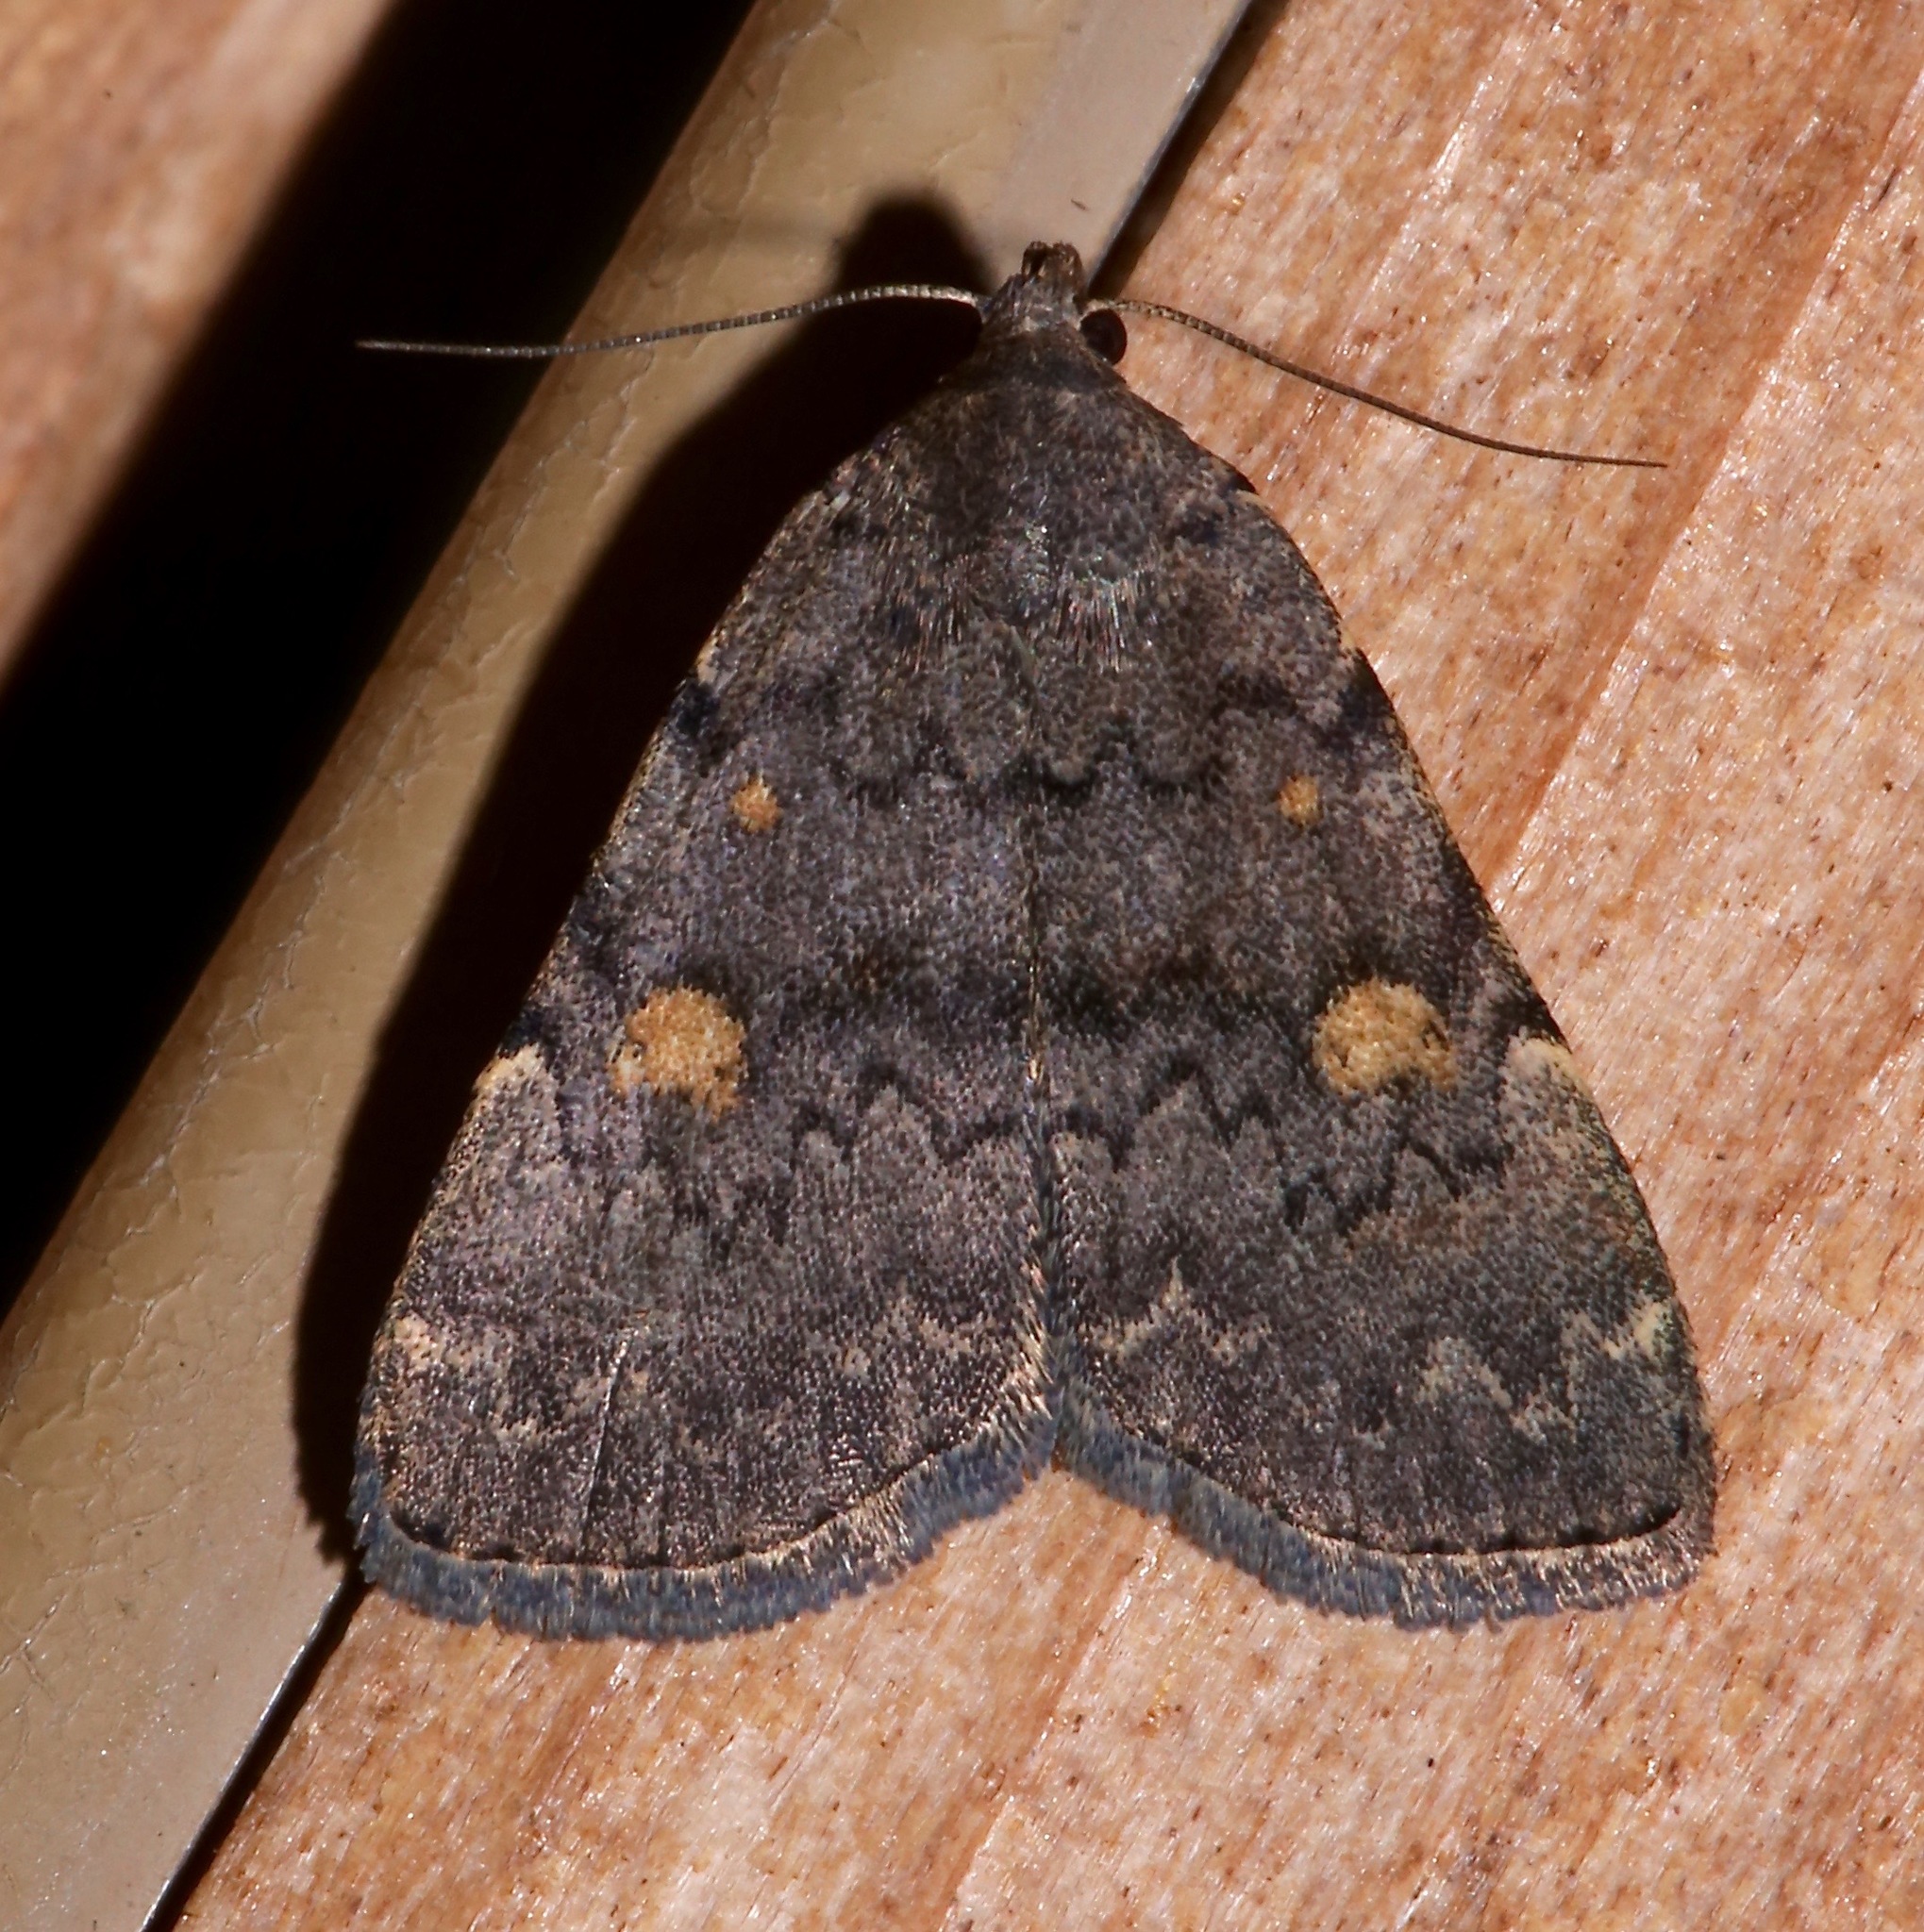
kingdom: Animalia
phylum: Arthropoda
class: Insecta
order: Lepidoptera
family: Erebidae
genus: Idia
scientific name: Idia aemula
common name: Common idia moth
